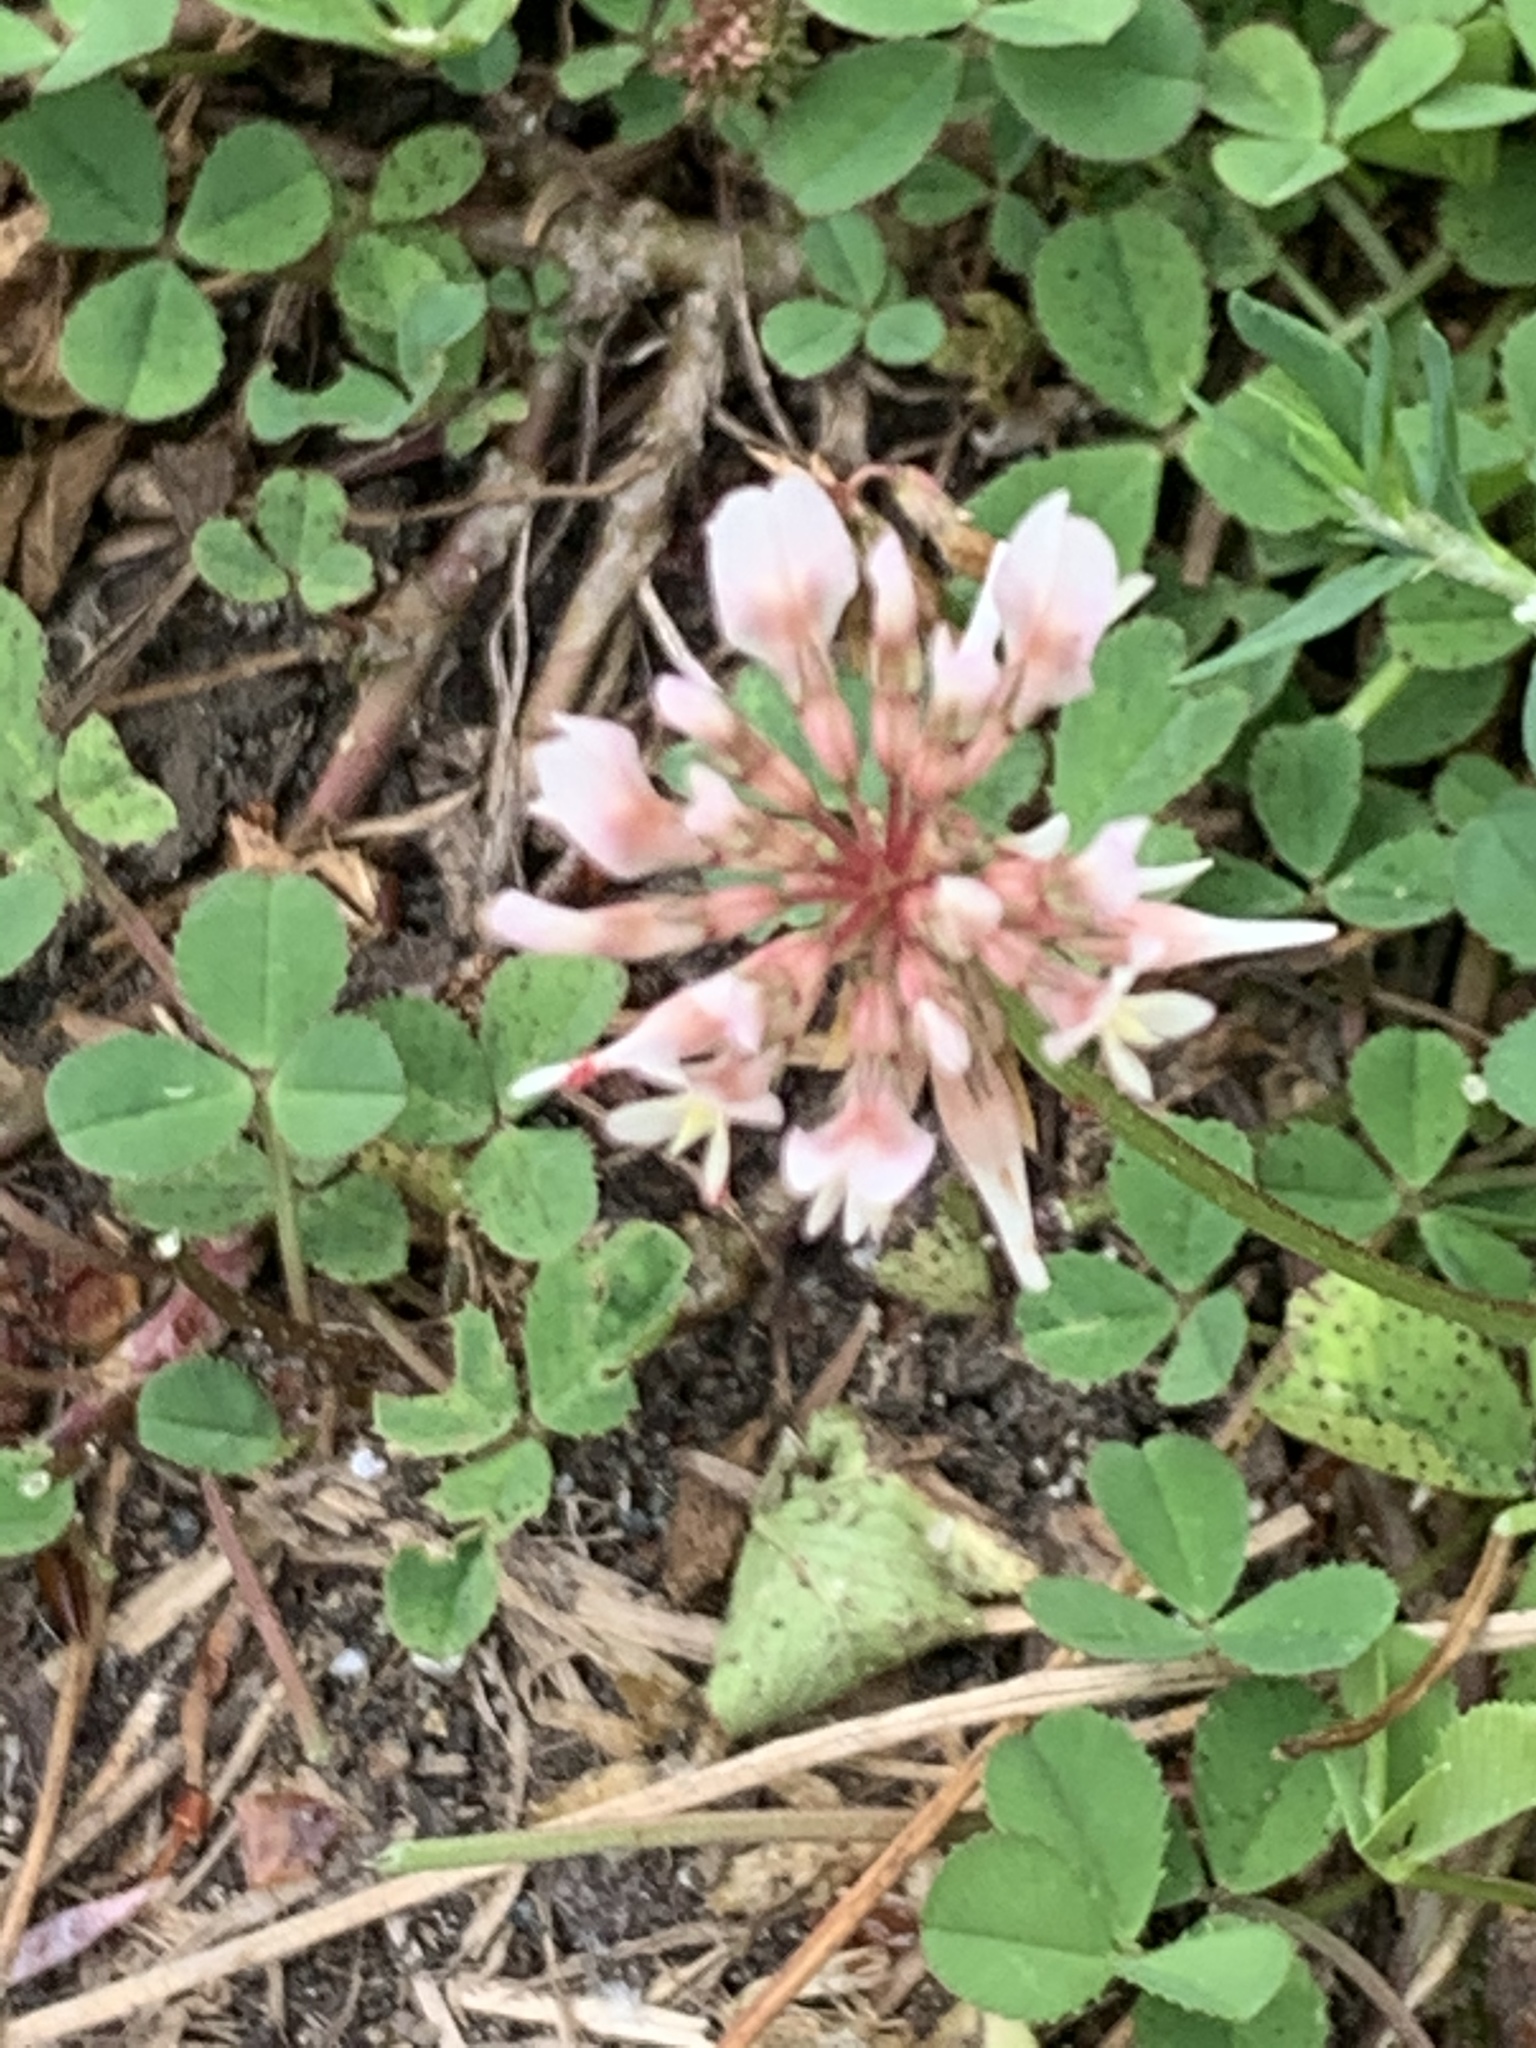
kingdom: Plantae
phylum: Tracheophyta
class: Magnoliopsida
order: Fabales
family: Fabaceae
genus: Trifolium
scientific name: Trifolium repens
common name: White clover
